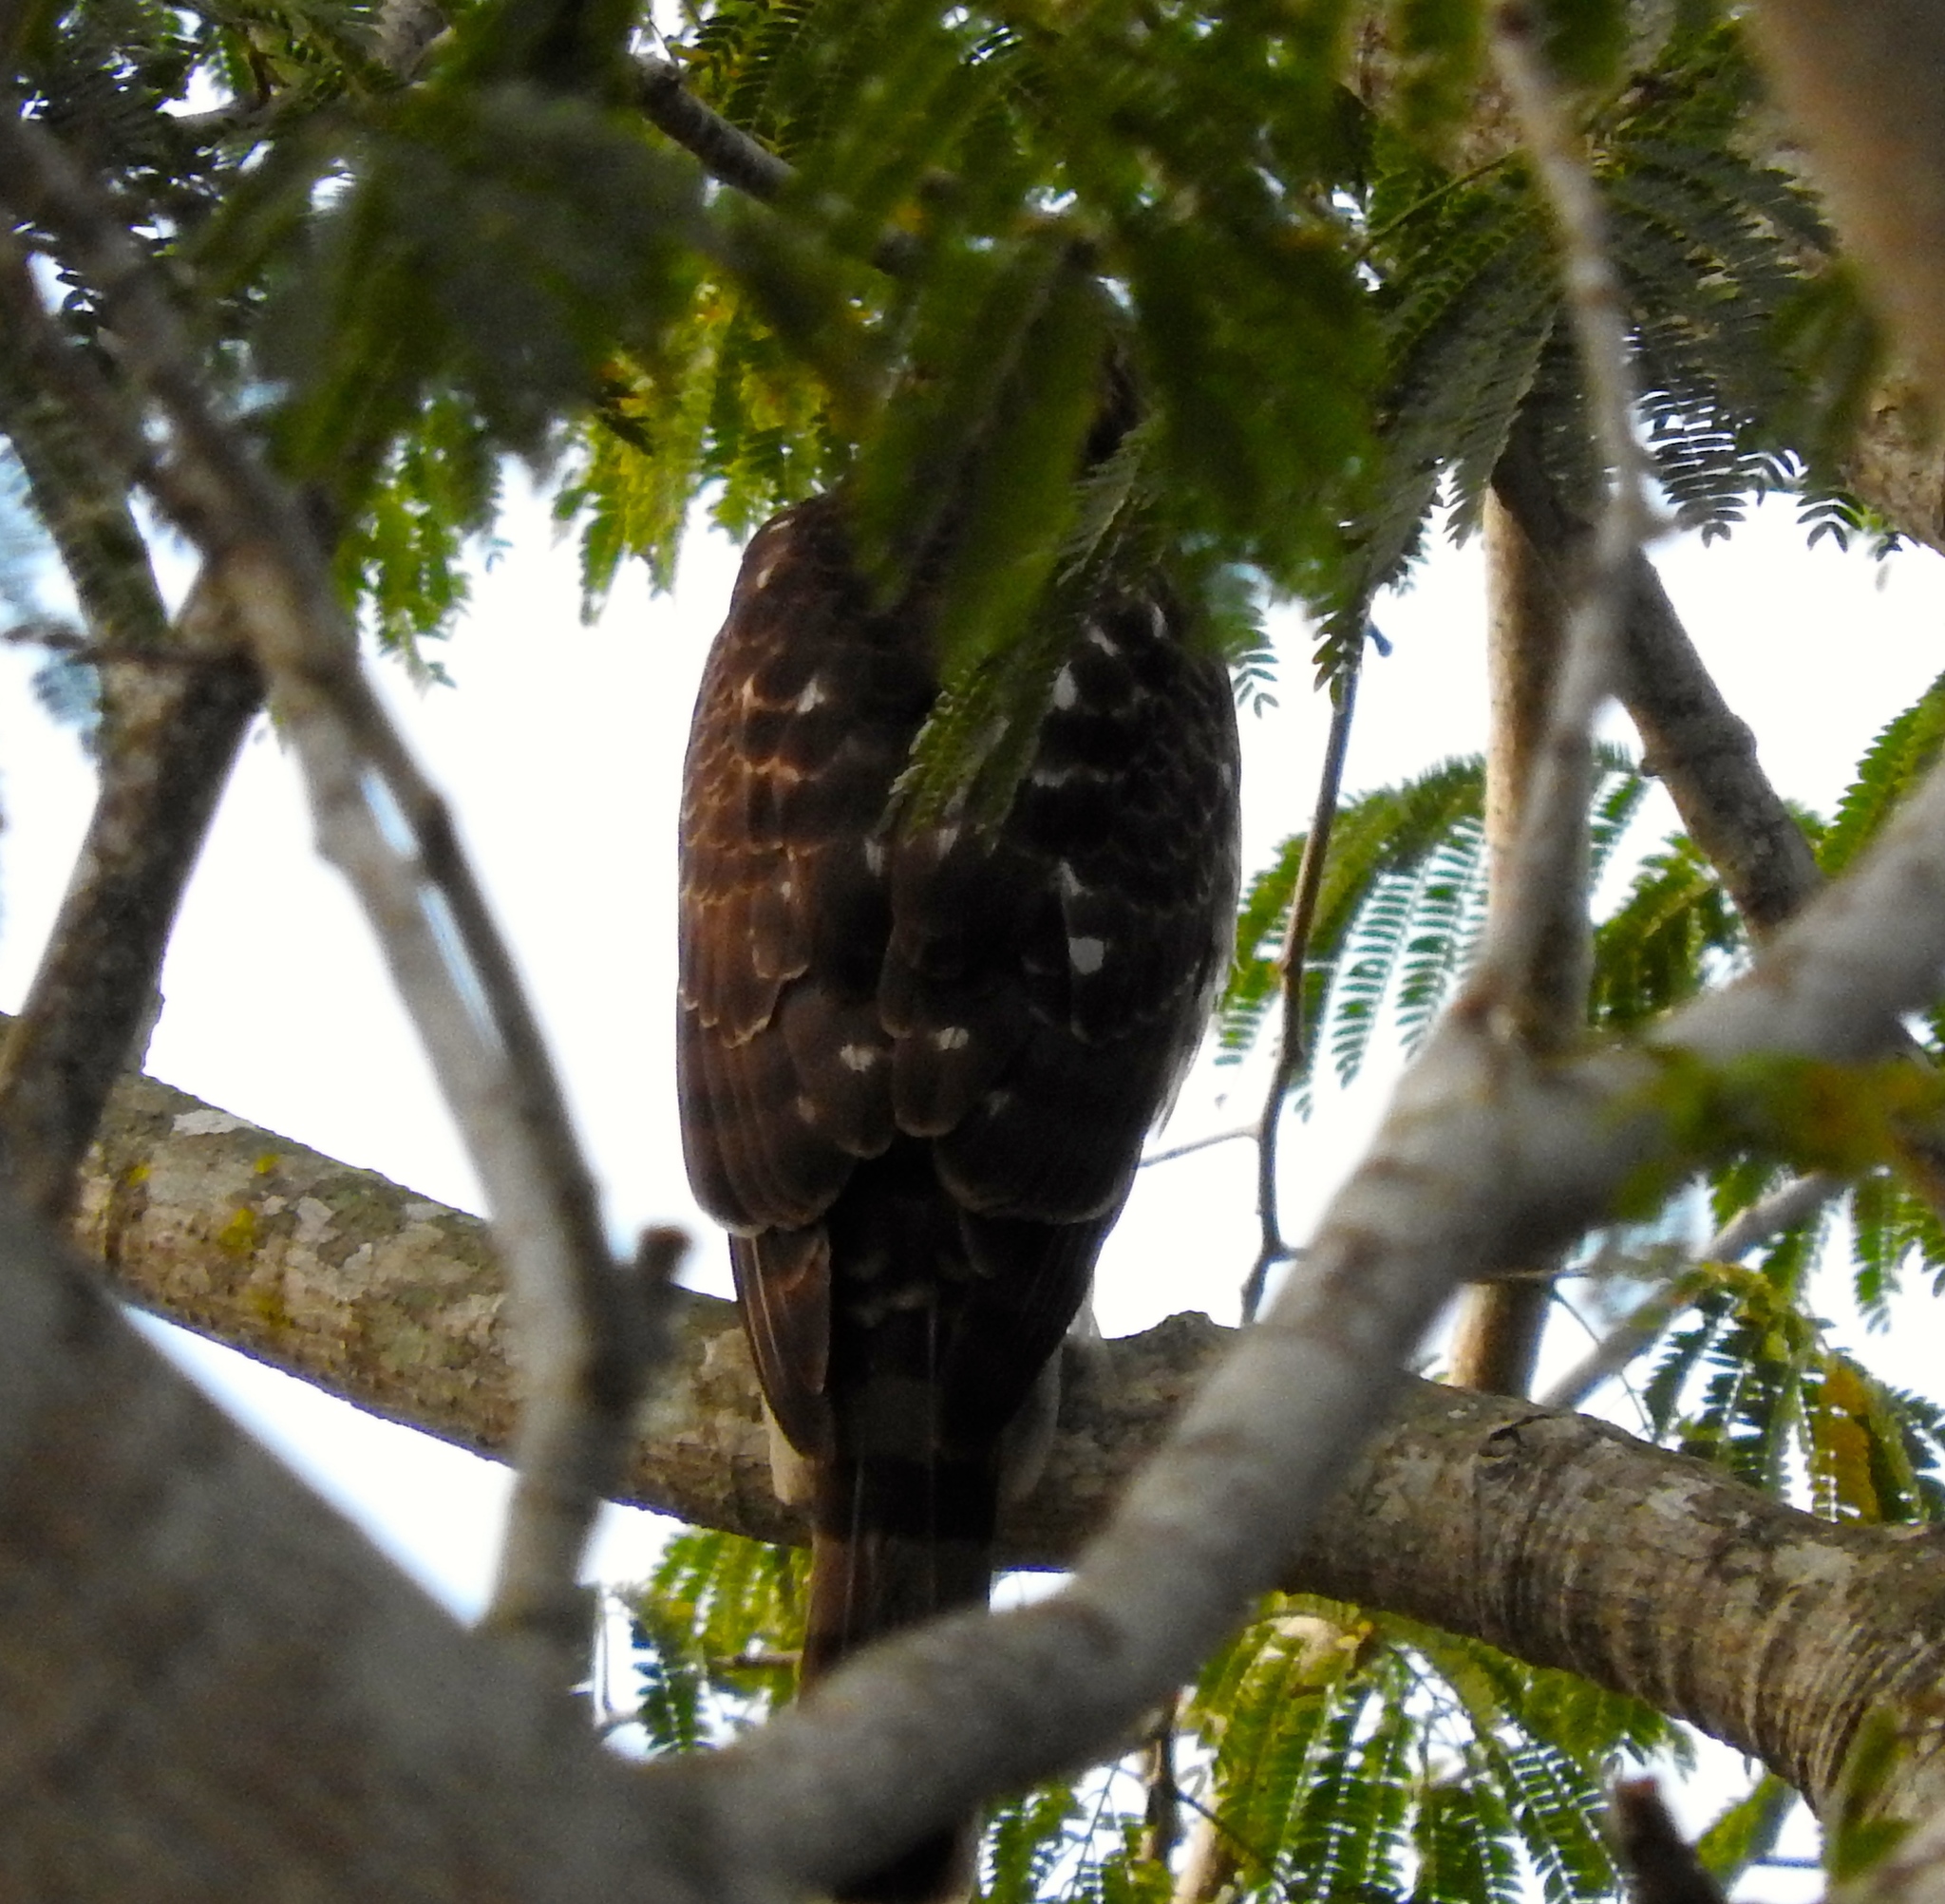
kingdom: Animalia
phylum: Chordata
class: Aves
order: Accipitriformes
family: Accipitridae
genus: Accipiter
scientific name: Accipiter
